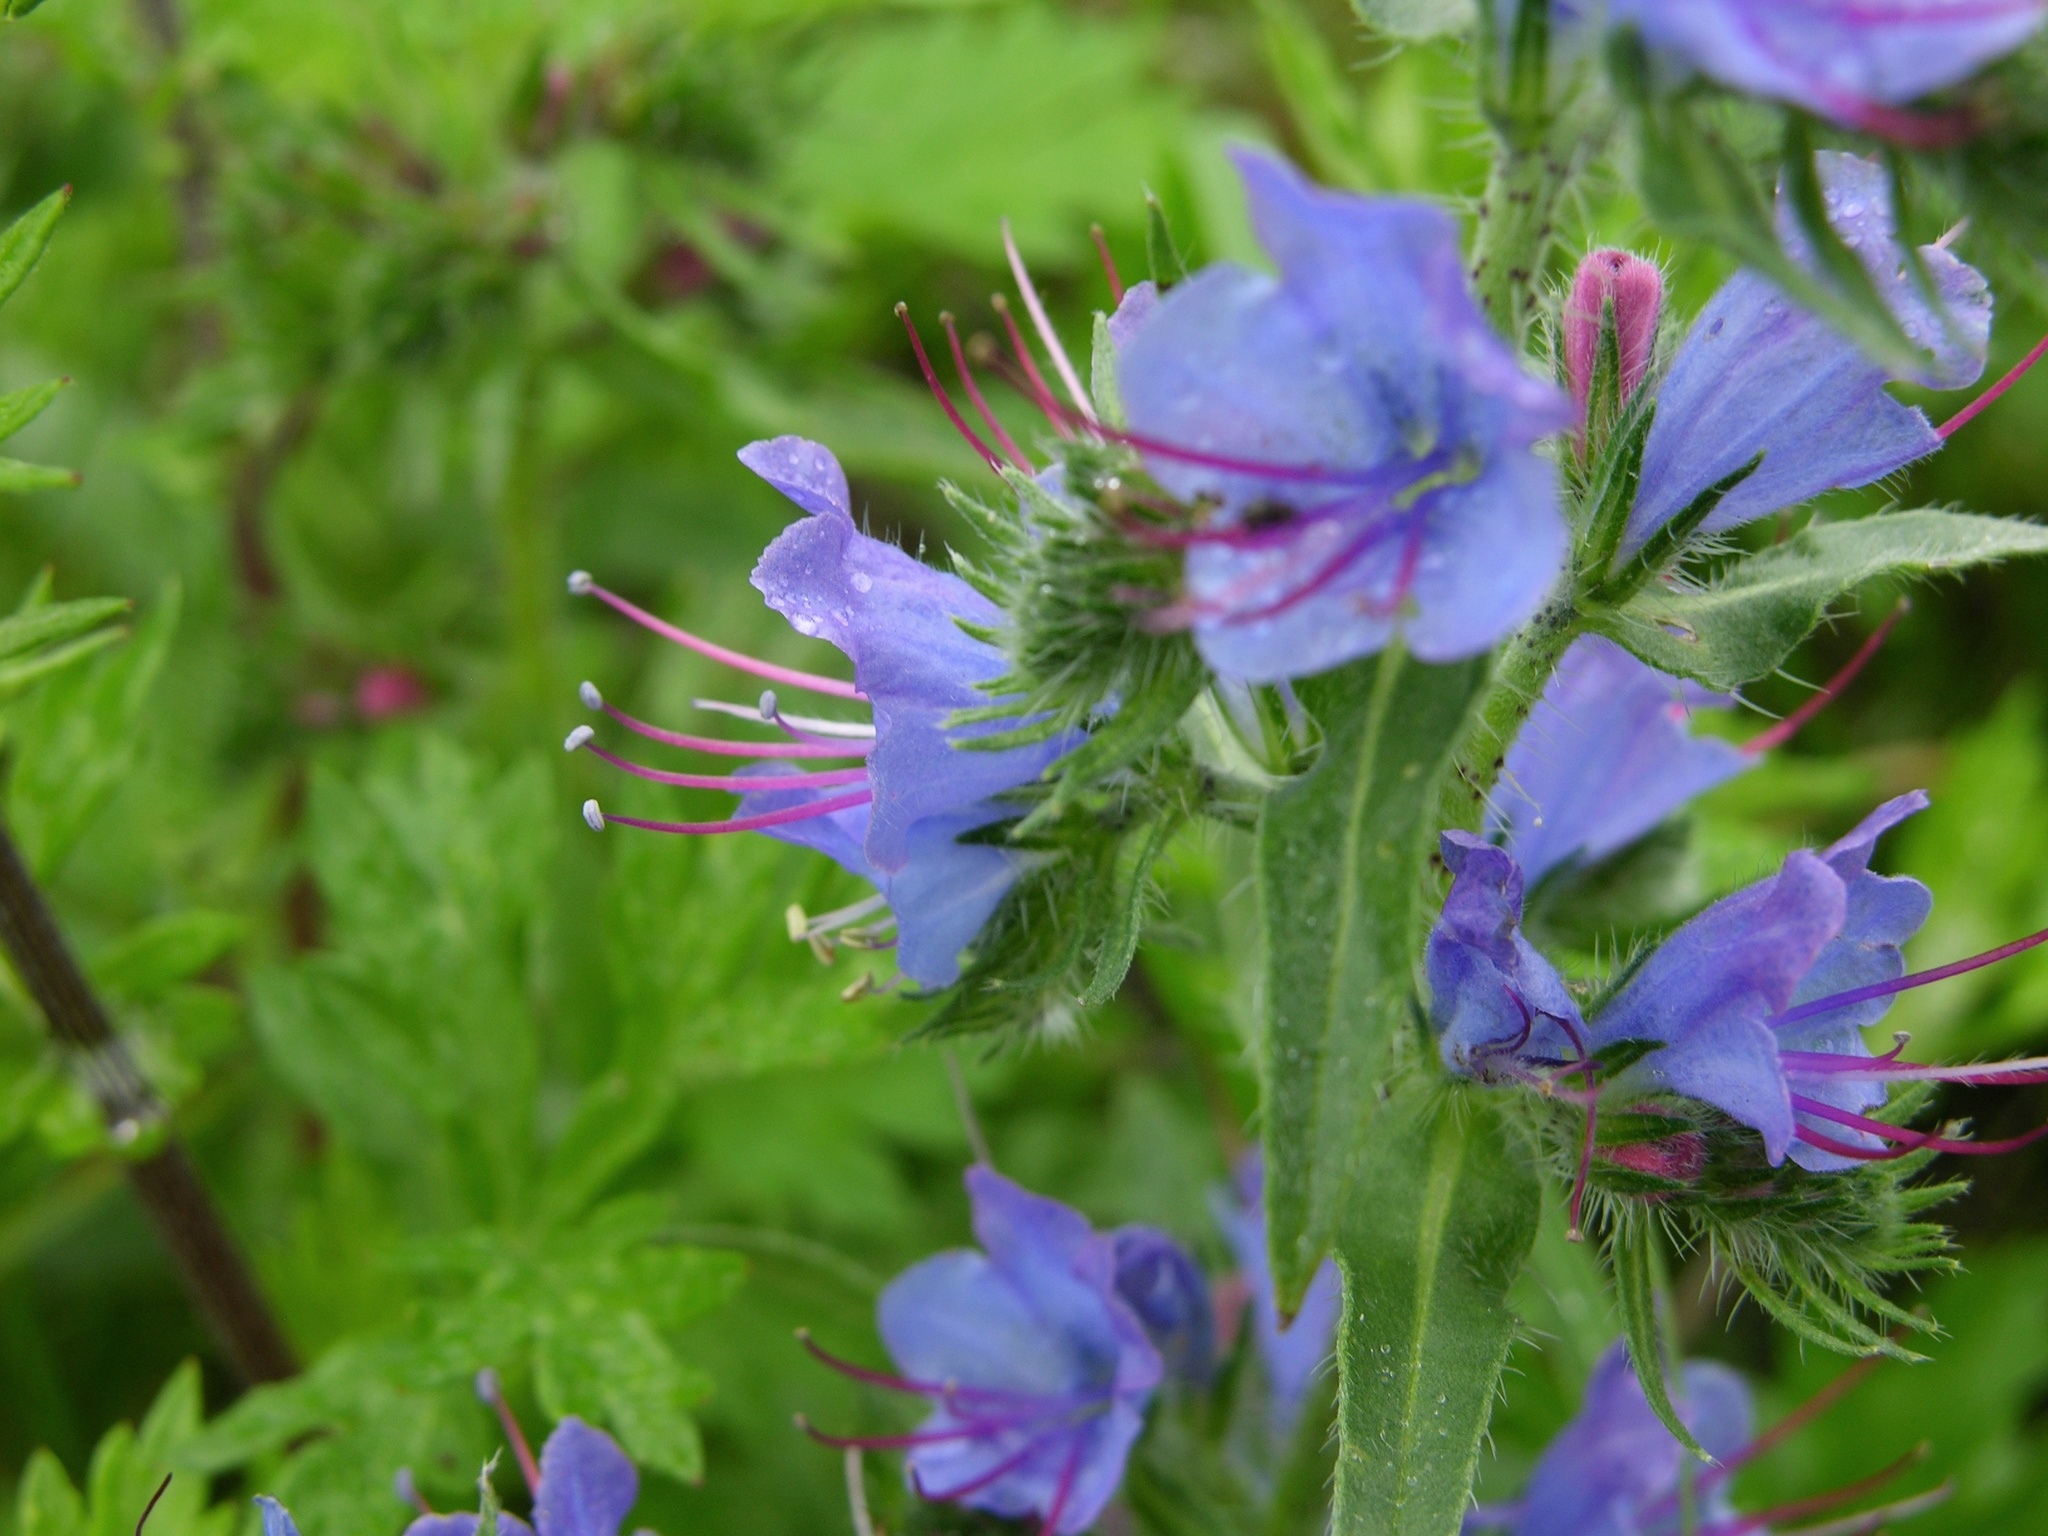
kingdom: Plantae
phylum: Tracheophyta
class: Magnoliopsida
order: Boraginales
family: Boraginaceae
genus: Echium
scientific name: Echium vulgare
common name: Common viper's bugloss
